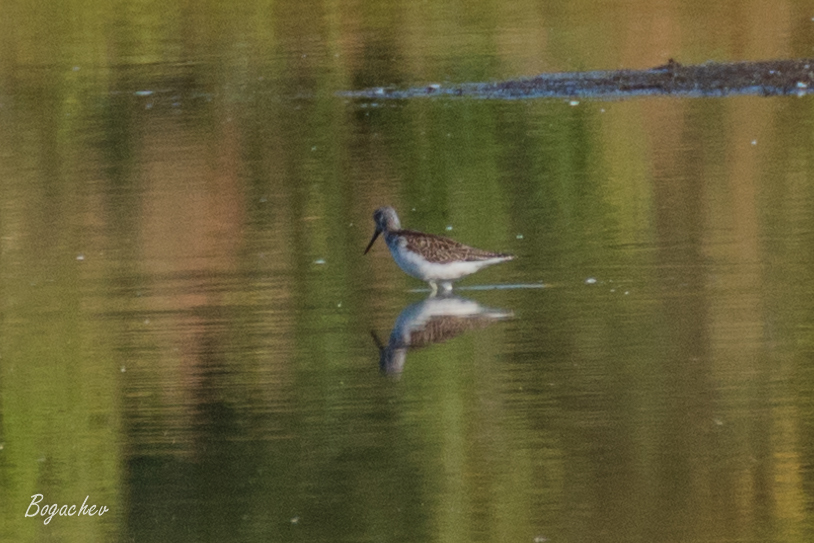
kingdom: Animalia
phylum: Chordata
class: Aves
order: Charadriiformes
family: Scolopacidae
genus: Tringa
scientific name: Tringa nebularia
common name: Common greenshank
